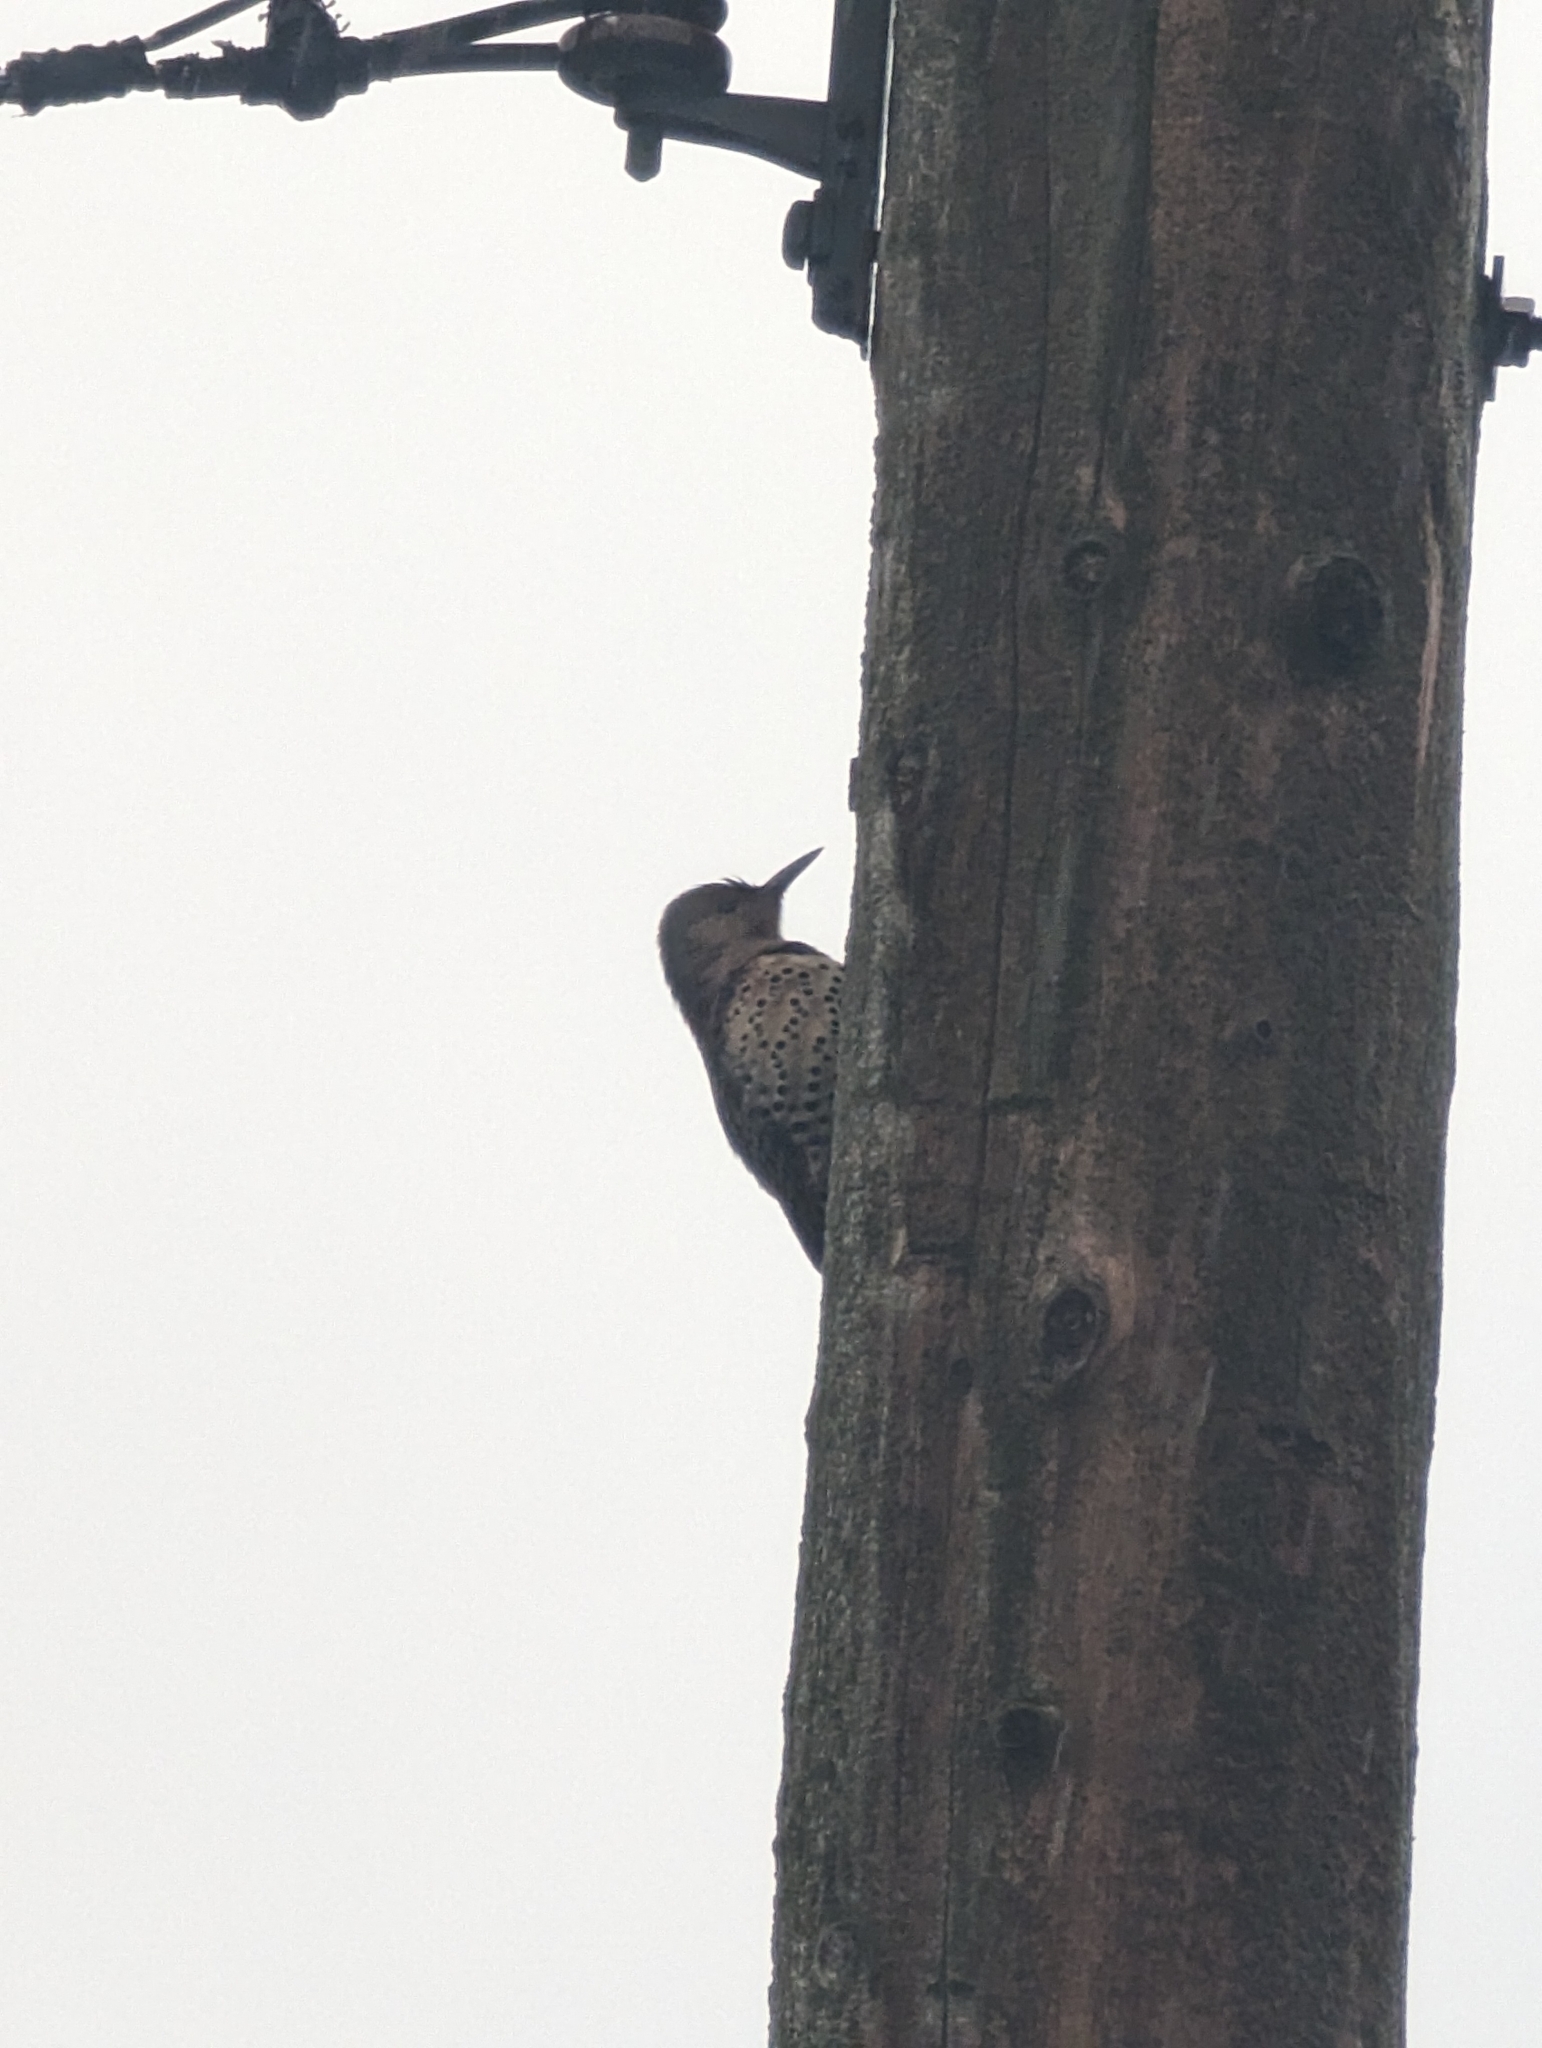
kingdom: Animalia
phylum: Chordata
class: Aves
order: Piciformes
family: Picidae
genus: Colaptes
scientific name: Colaptes auratus
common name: Northern flicker
